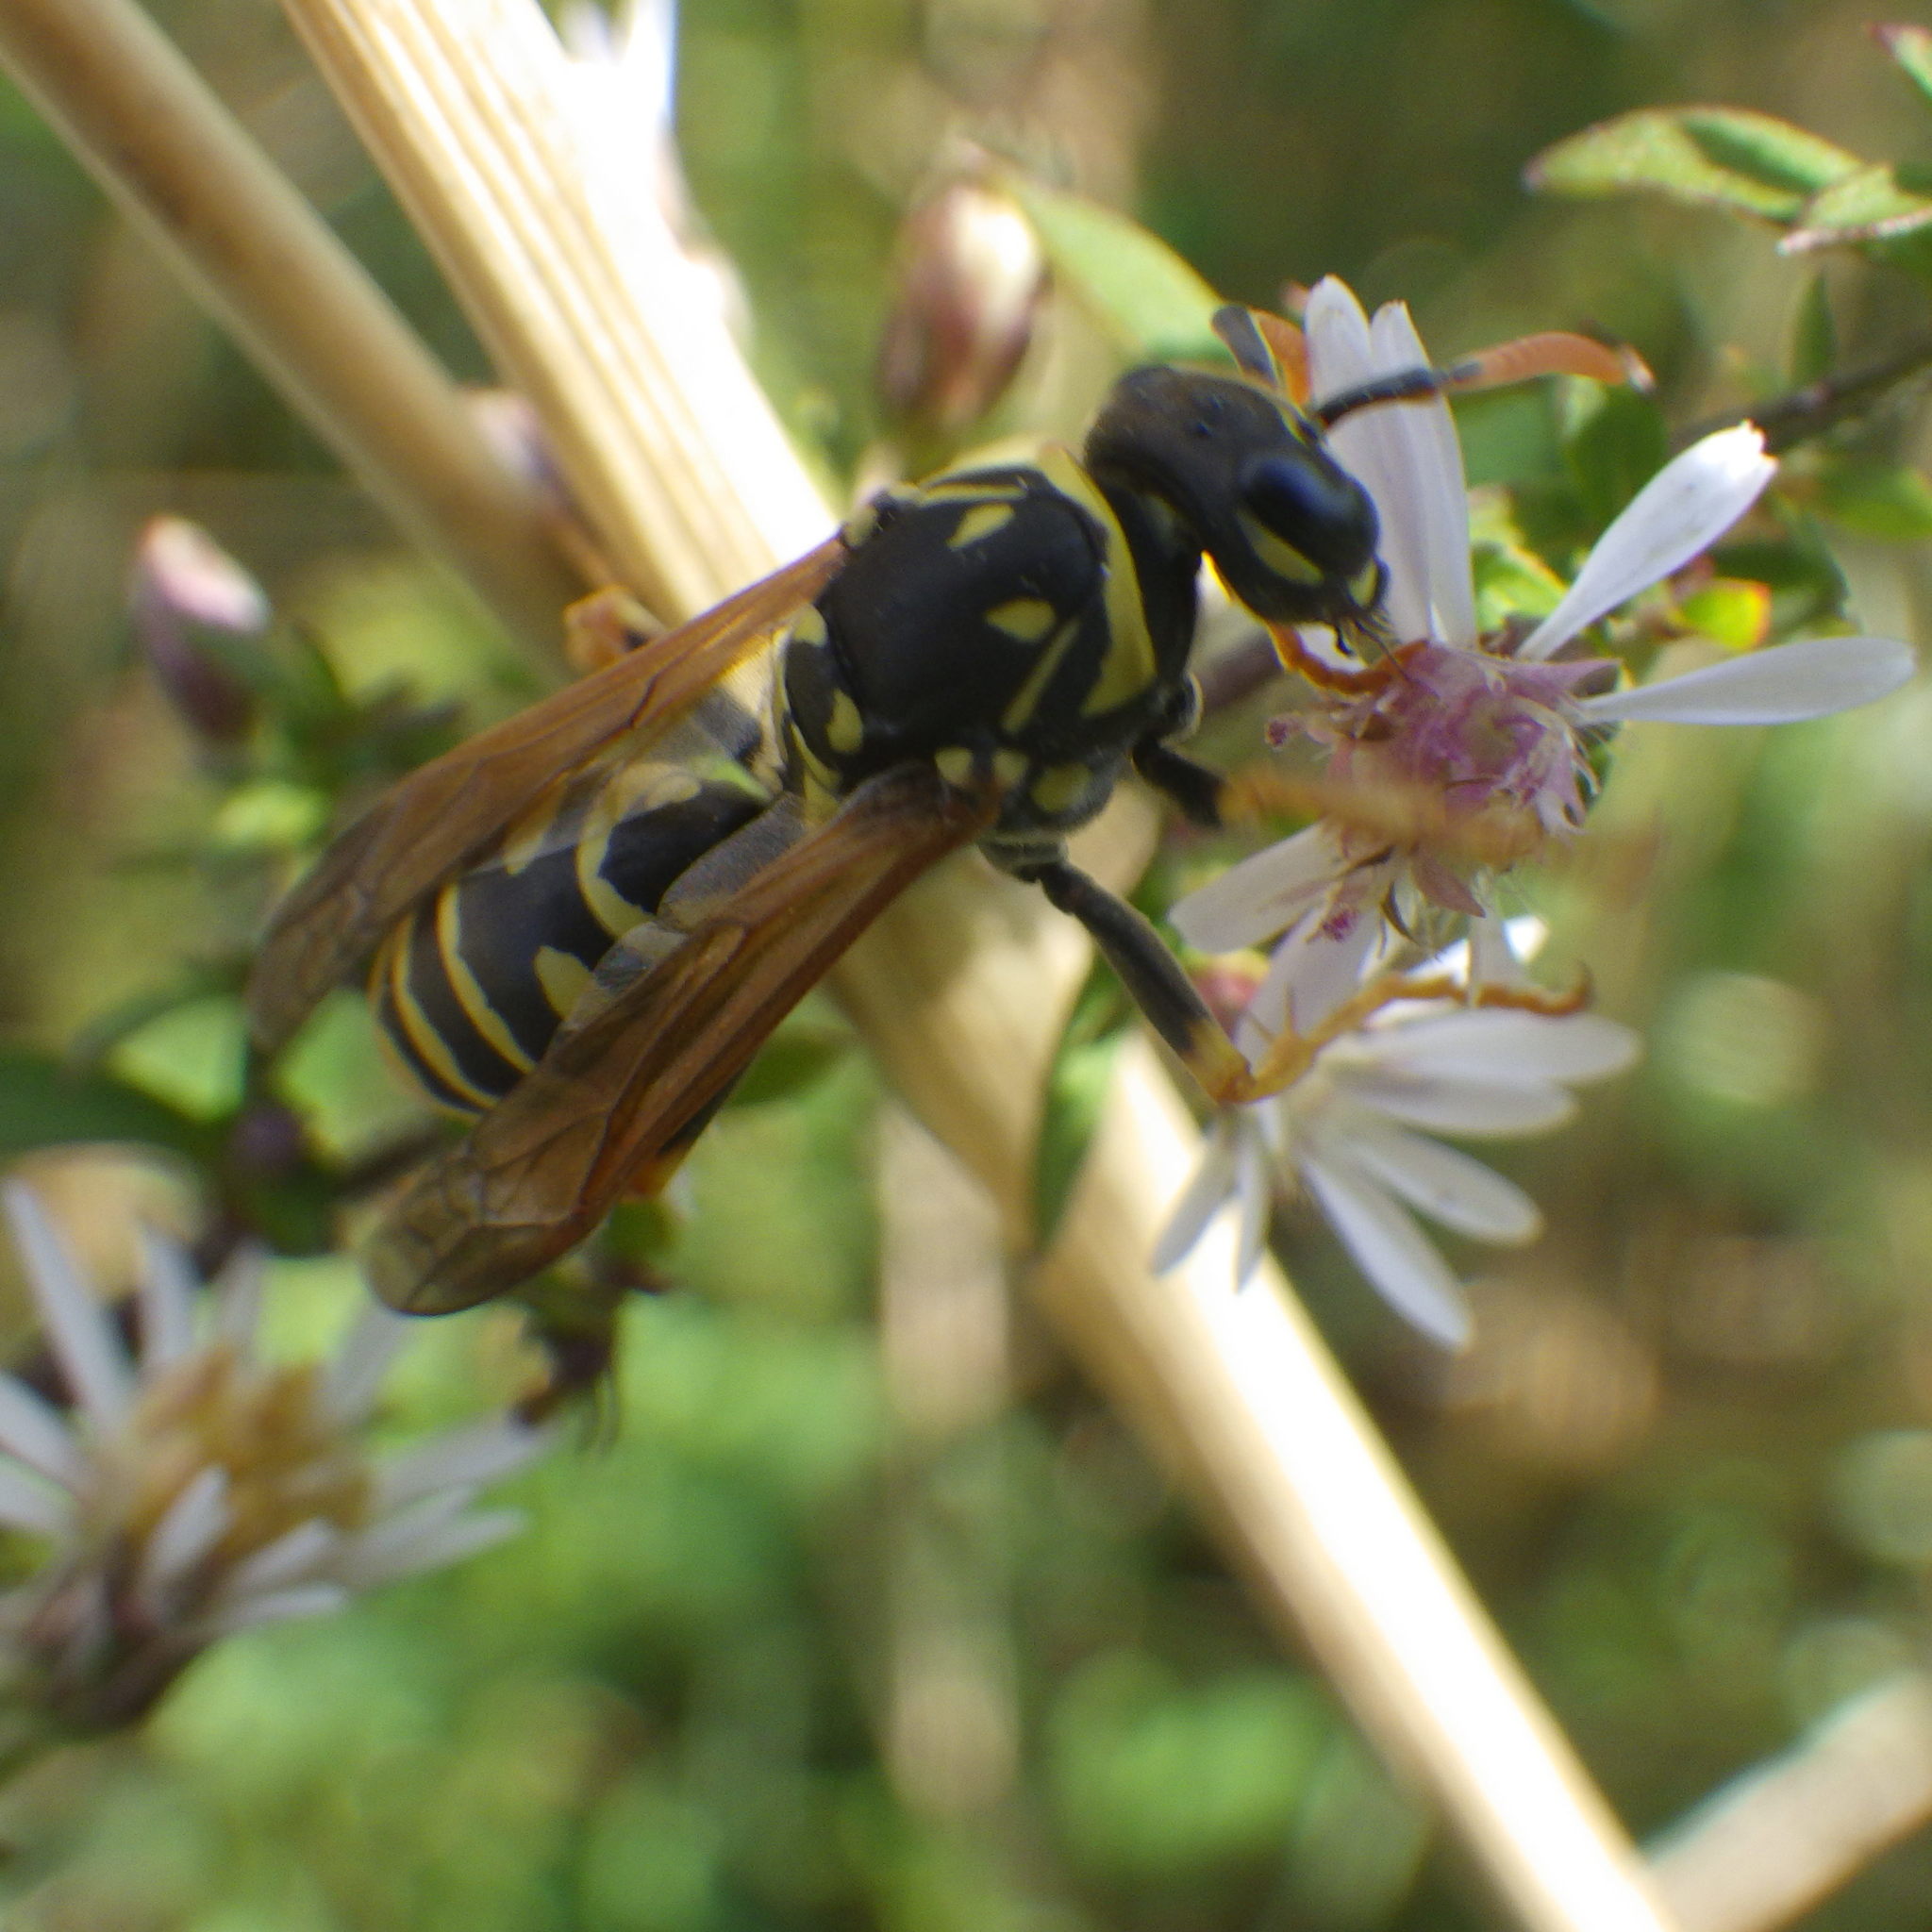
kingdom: Animalia
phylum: Arthropoda
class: Insecta
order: Hymenoptera
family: Eumenidae
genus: Polistes
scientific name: Polistes dominula
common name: Paper wasp
